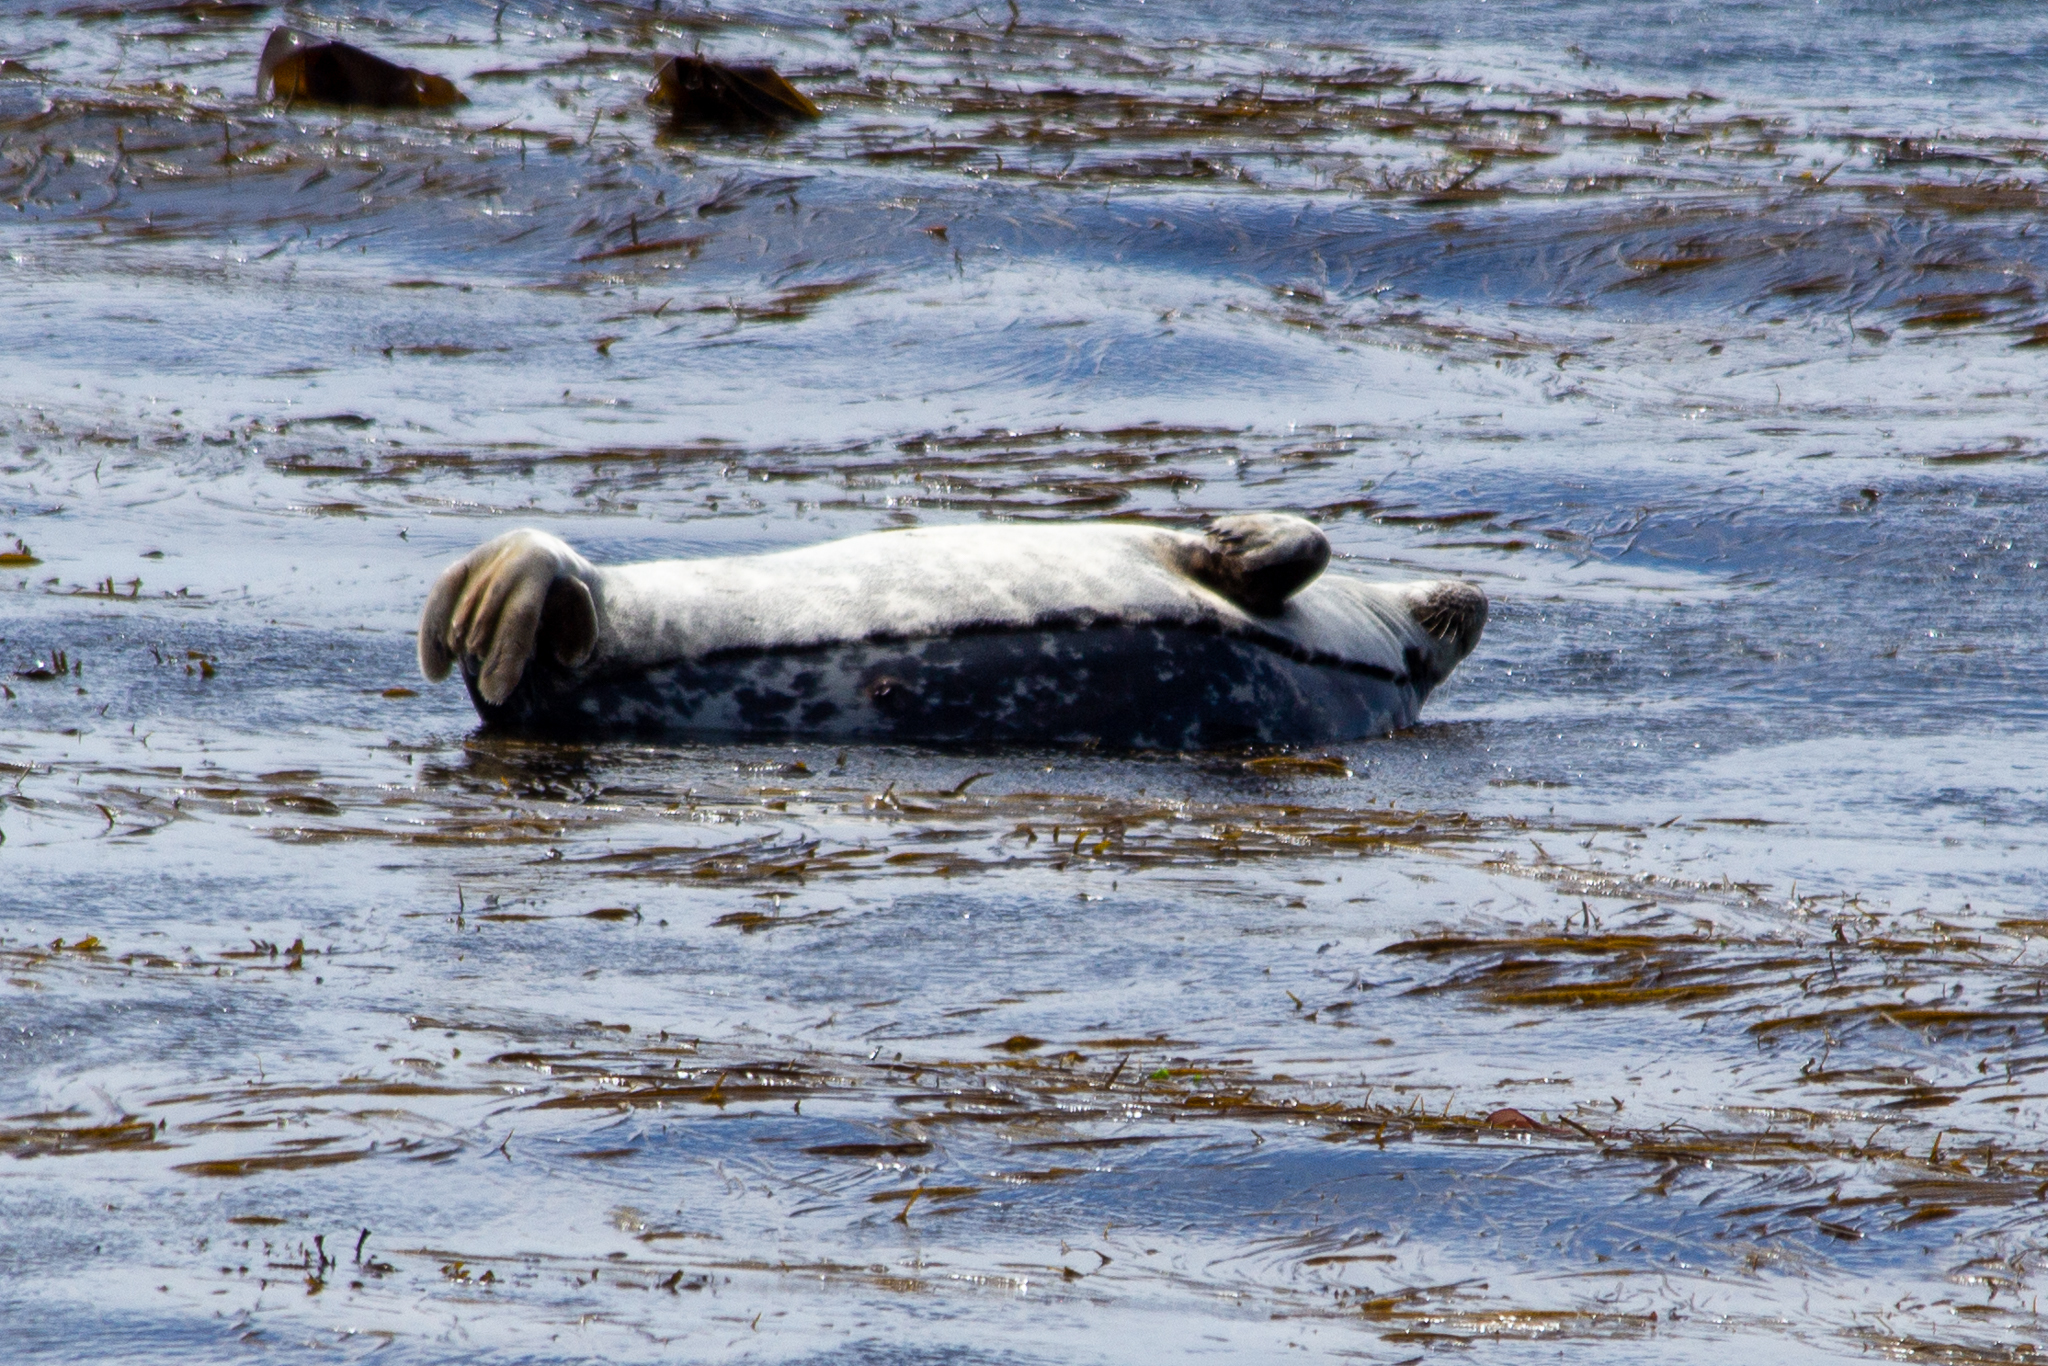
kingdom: Animalia
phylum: Chordata
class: Mammalia
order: Carnivora
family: Phocidae
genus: Halichoerus
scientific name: Halichoerus grypus
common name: Grey seal
